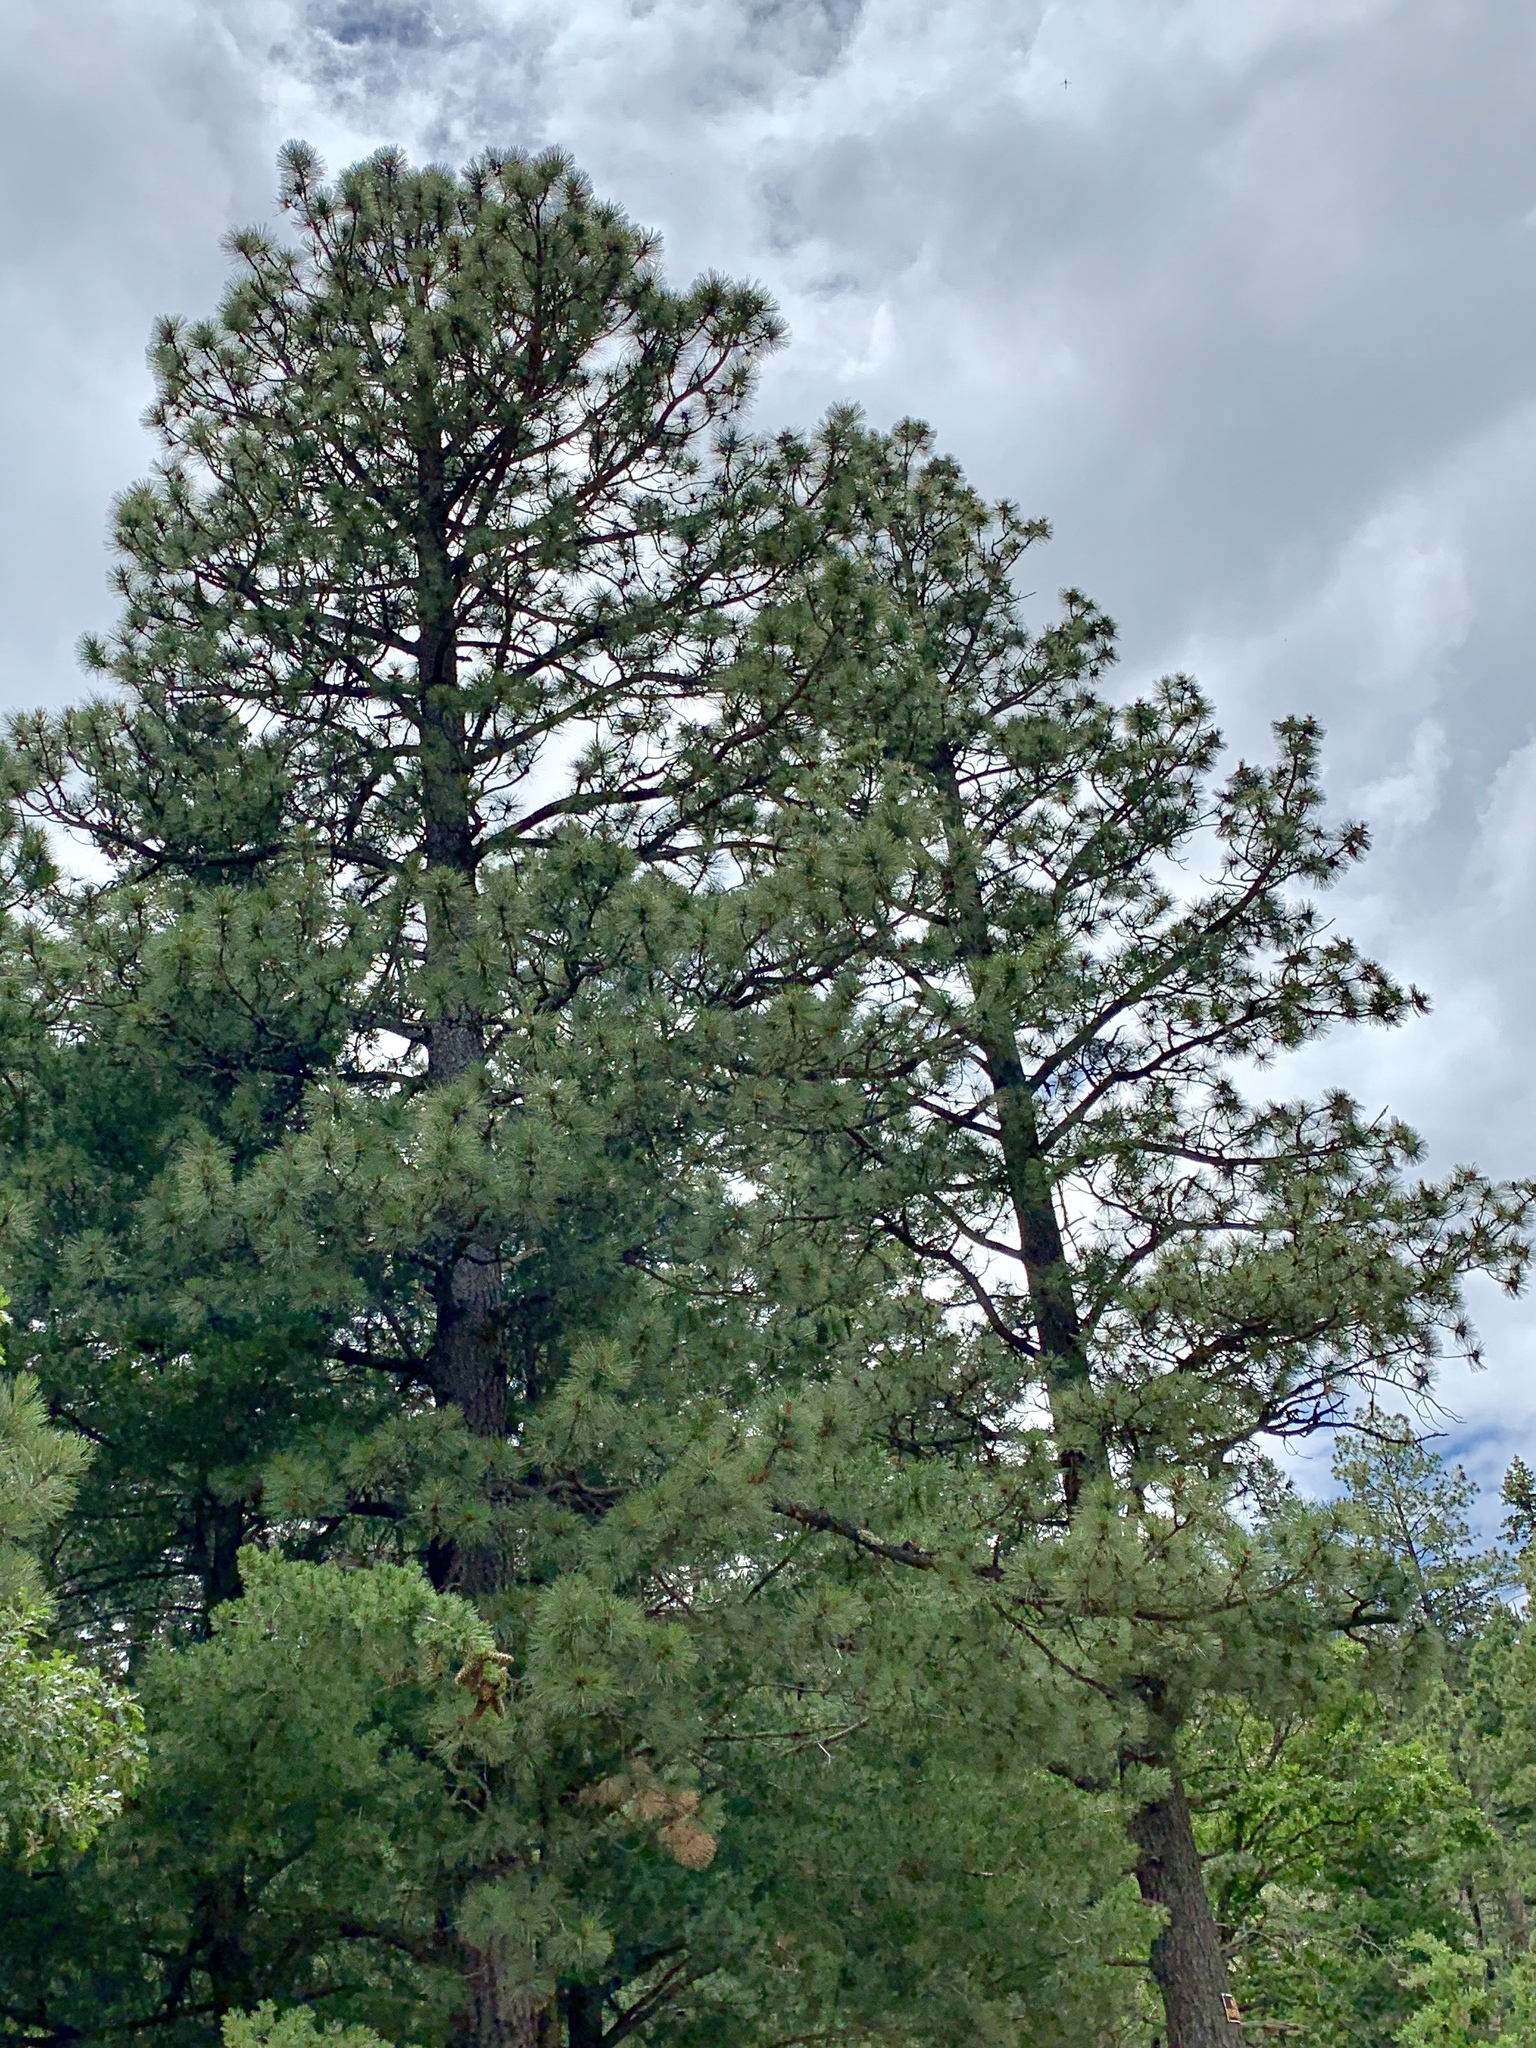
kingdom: Plantae
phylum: Tracheophyta
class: Pinopsida
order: Pinales
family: Pinaceae
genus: Pinus
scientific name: Pinus ponderosa
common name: Western yellow-pine
